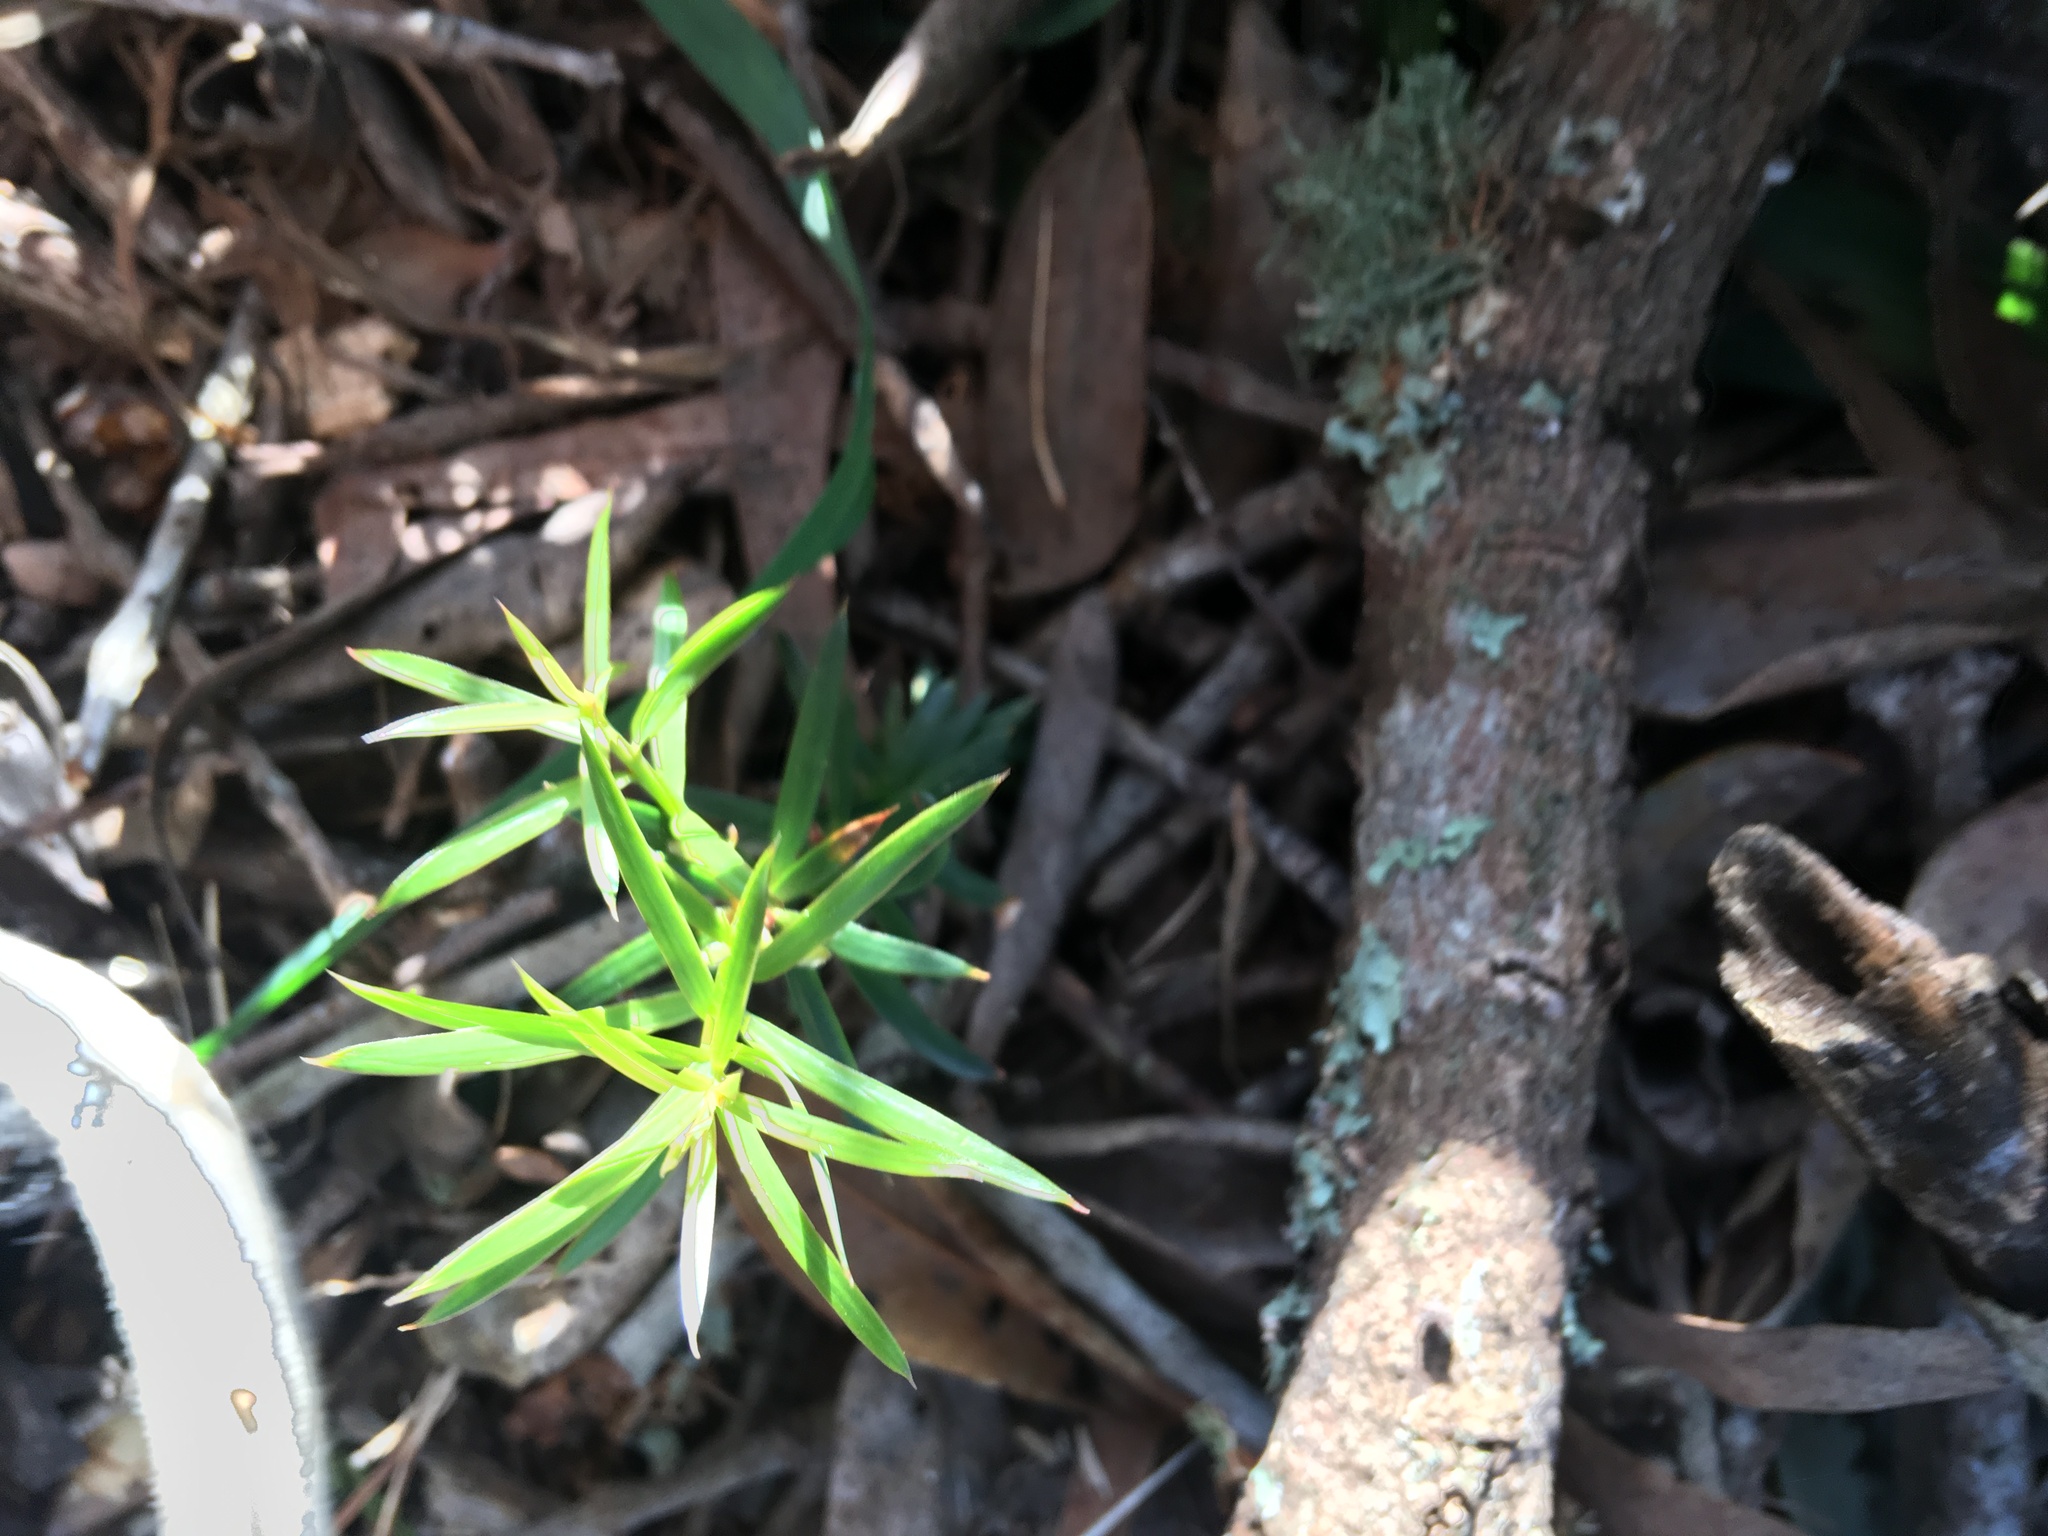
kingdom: Plantae
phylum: Tracheophyta
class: Pinopsida
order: Pinales
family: Podocarpaceae
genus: Podocarpus
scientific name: Podocarpus totara
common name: Totara
